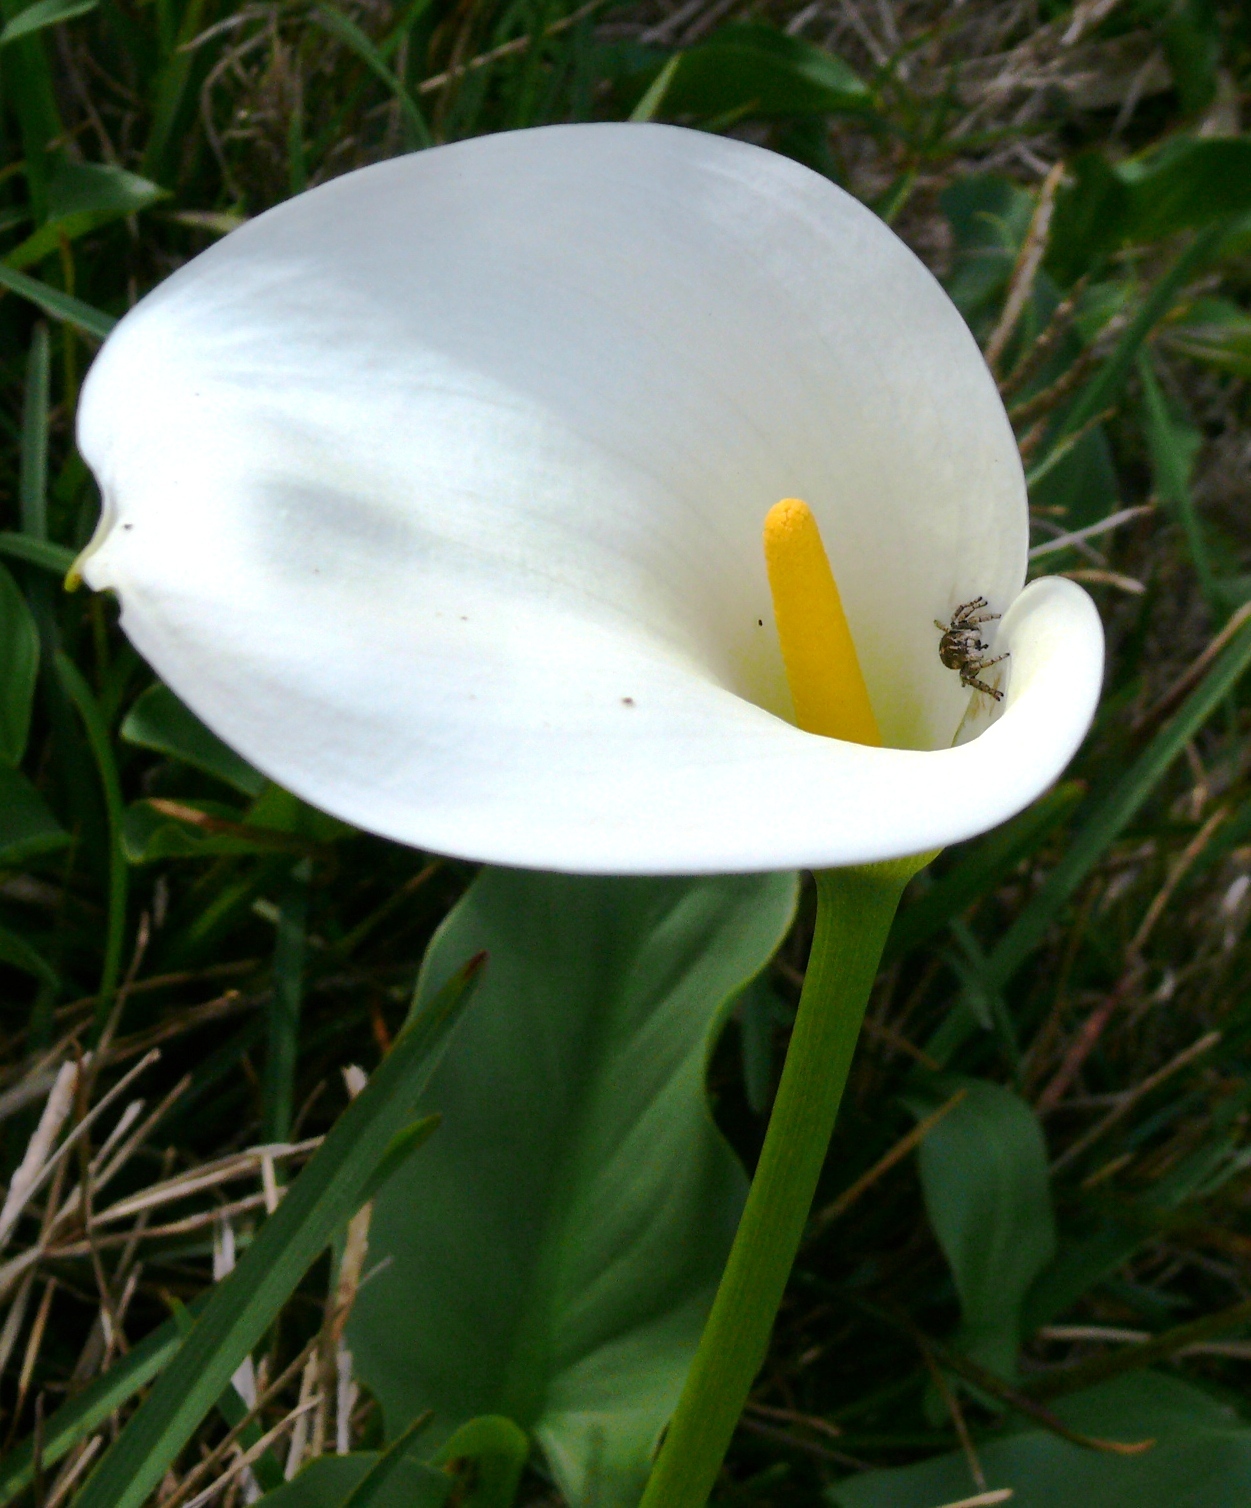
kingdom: Plantae
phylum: Tracheophyta
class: Liliopsida
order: Alismatales
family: Araceae
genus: Zantedeschia
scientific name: Zantedeschia aethiopica
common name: Altar-lily
